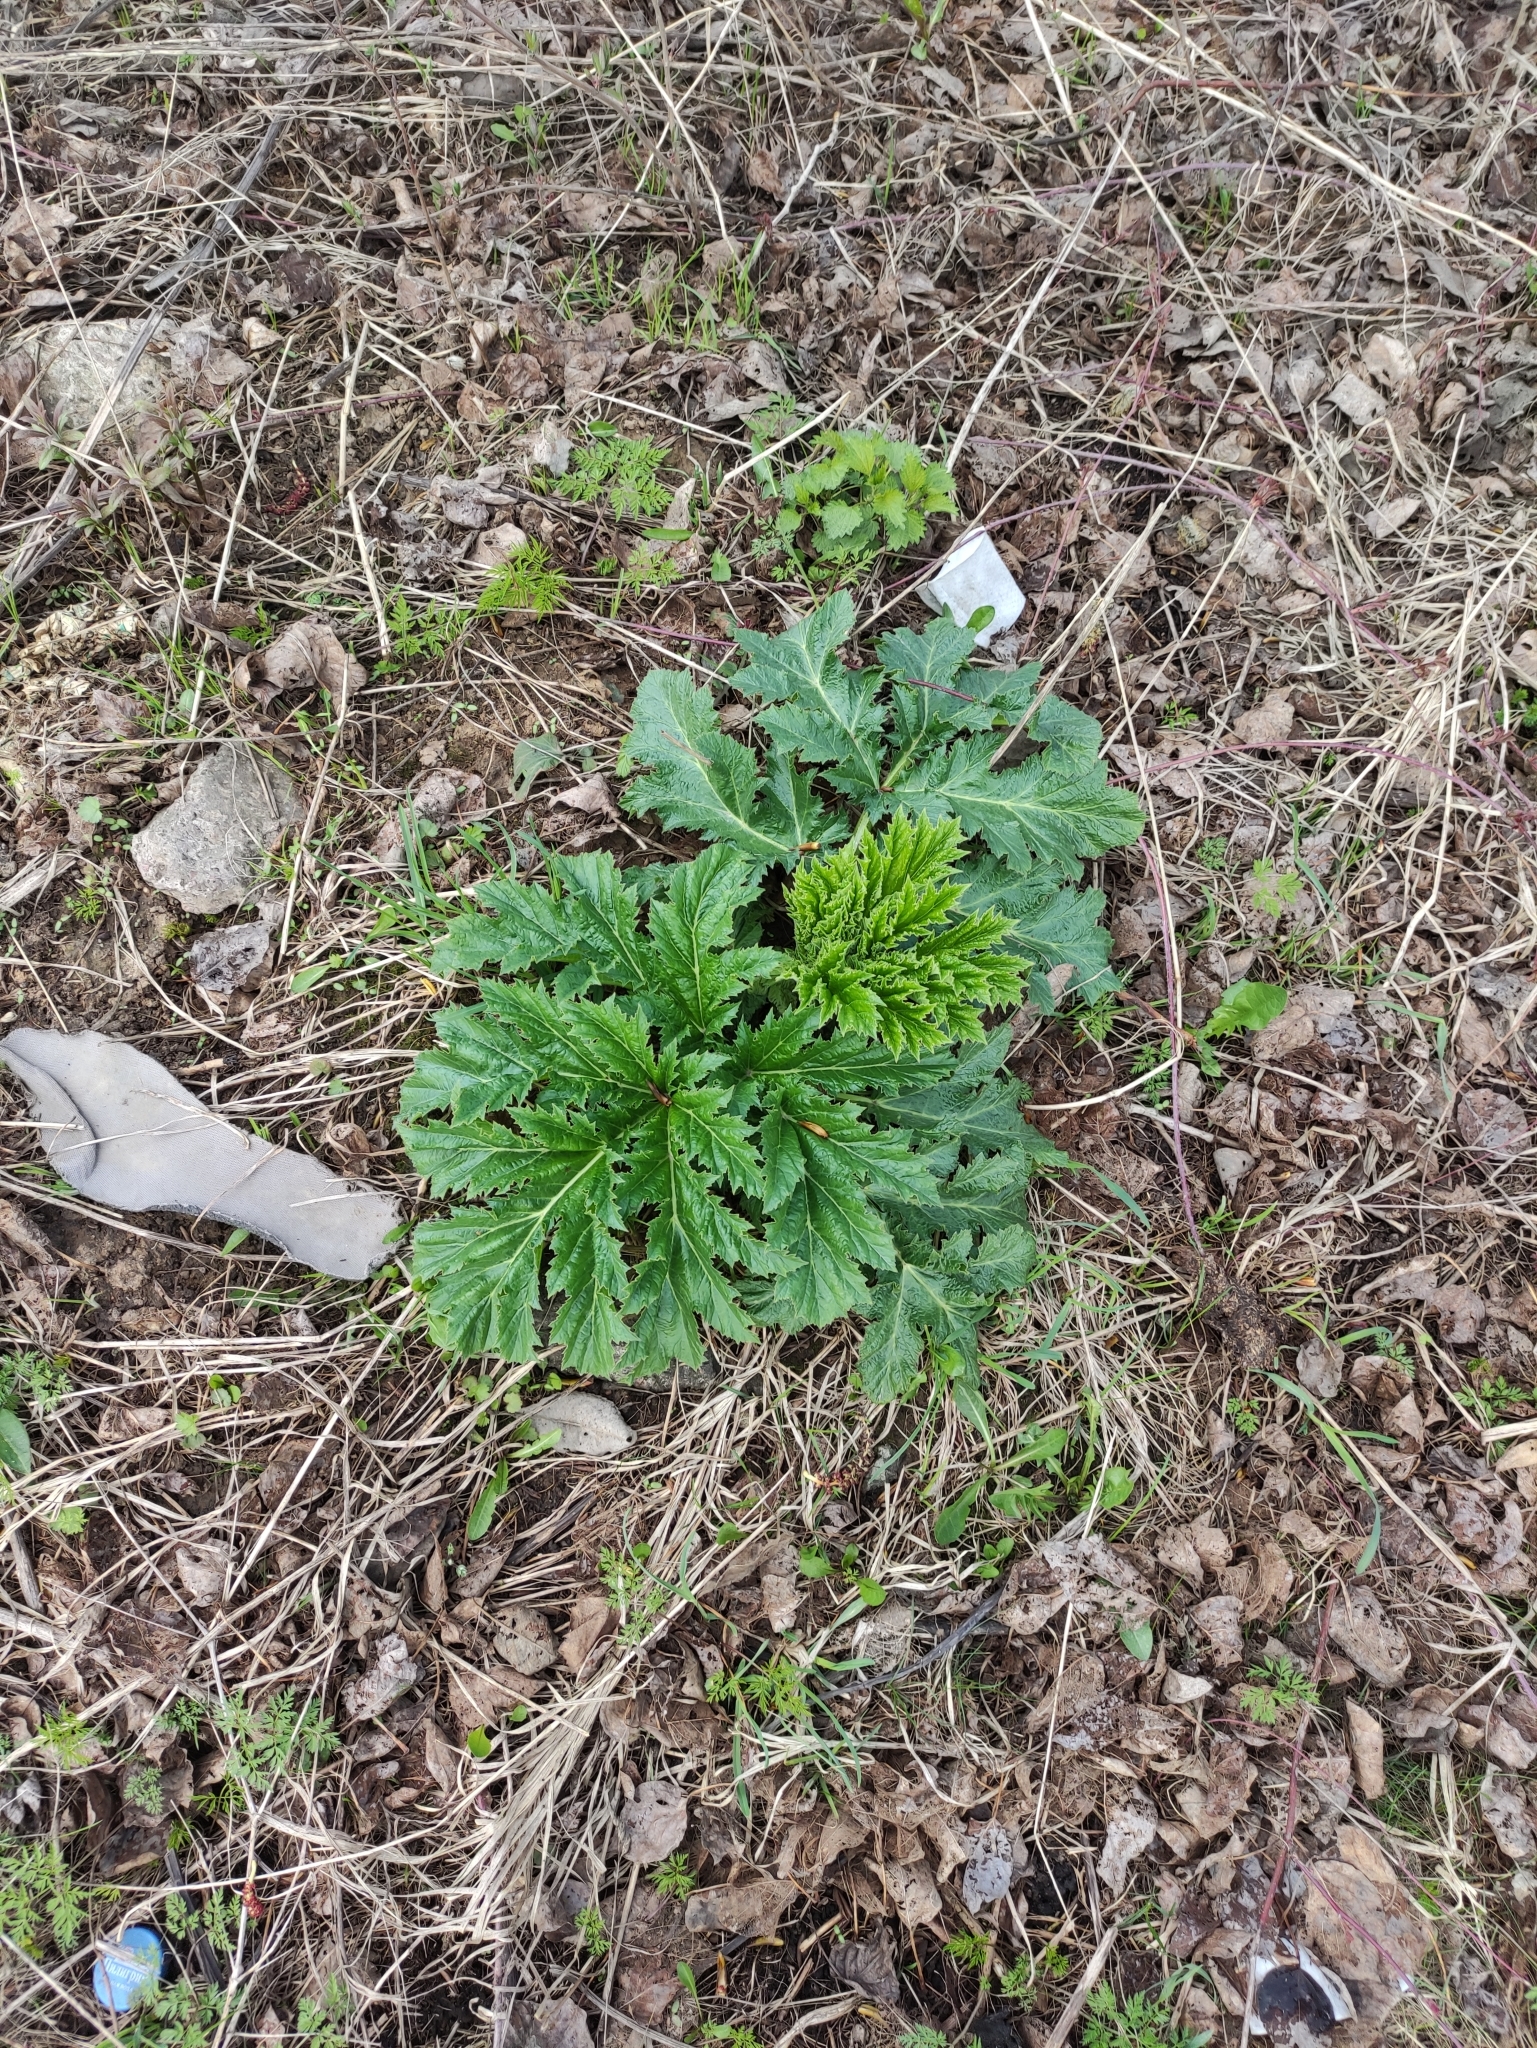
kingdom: Plantae
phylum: Tracheophyta
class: Magnoliopsida
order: Apiales
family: Apiaceae
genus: Heracleum
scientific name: Heracleum sosnowskyi
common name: Sosnowsky's hogweed
